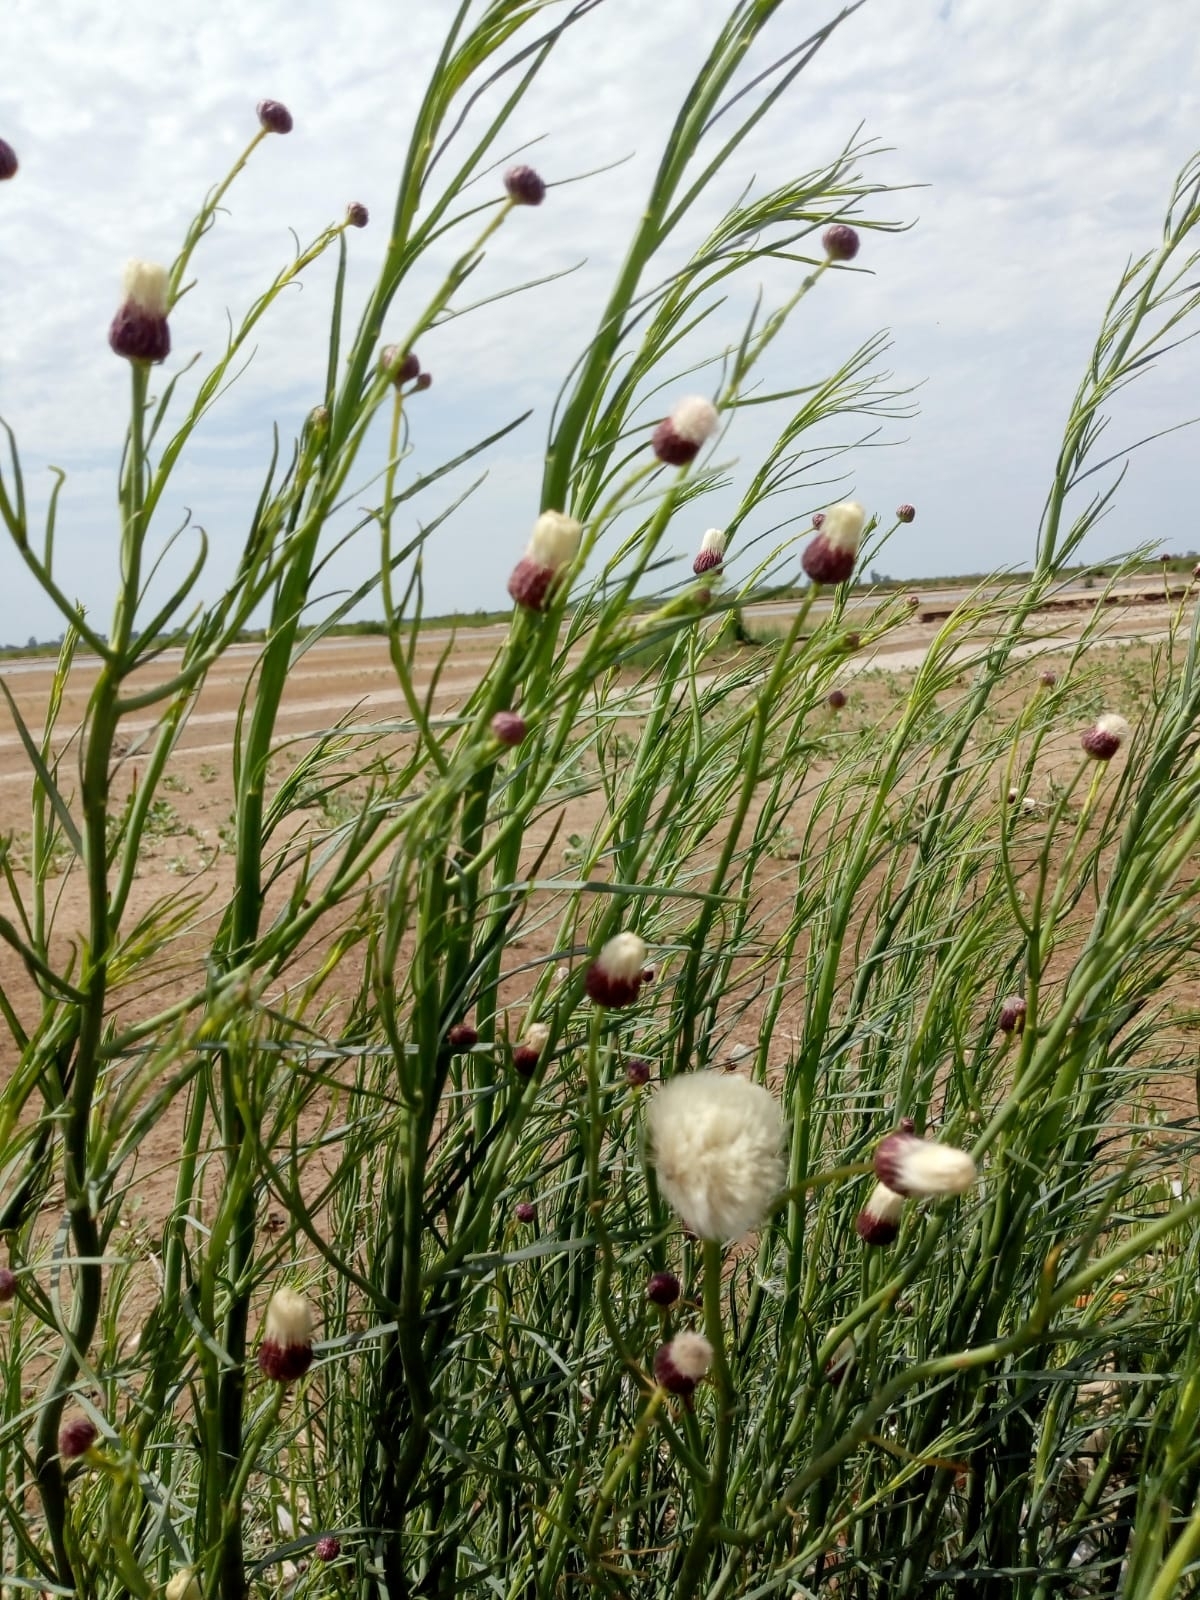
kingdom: Plantae
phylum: Tracheophyta
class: Magnoliopsida
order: Asterales
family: Asteraceae
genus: Baccharis
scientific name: Baccharis juncea
